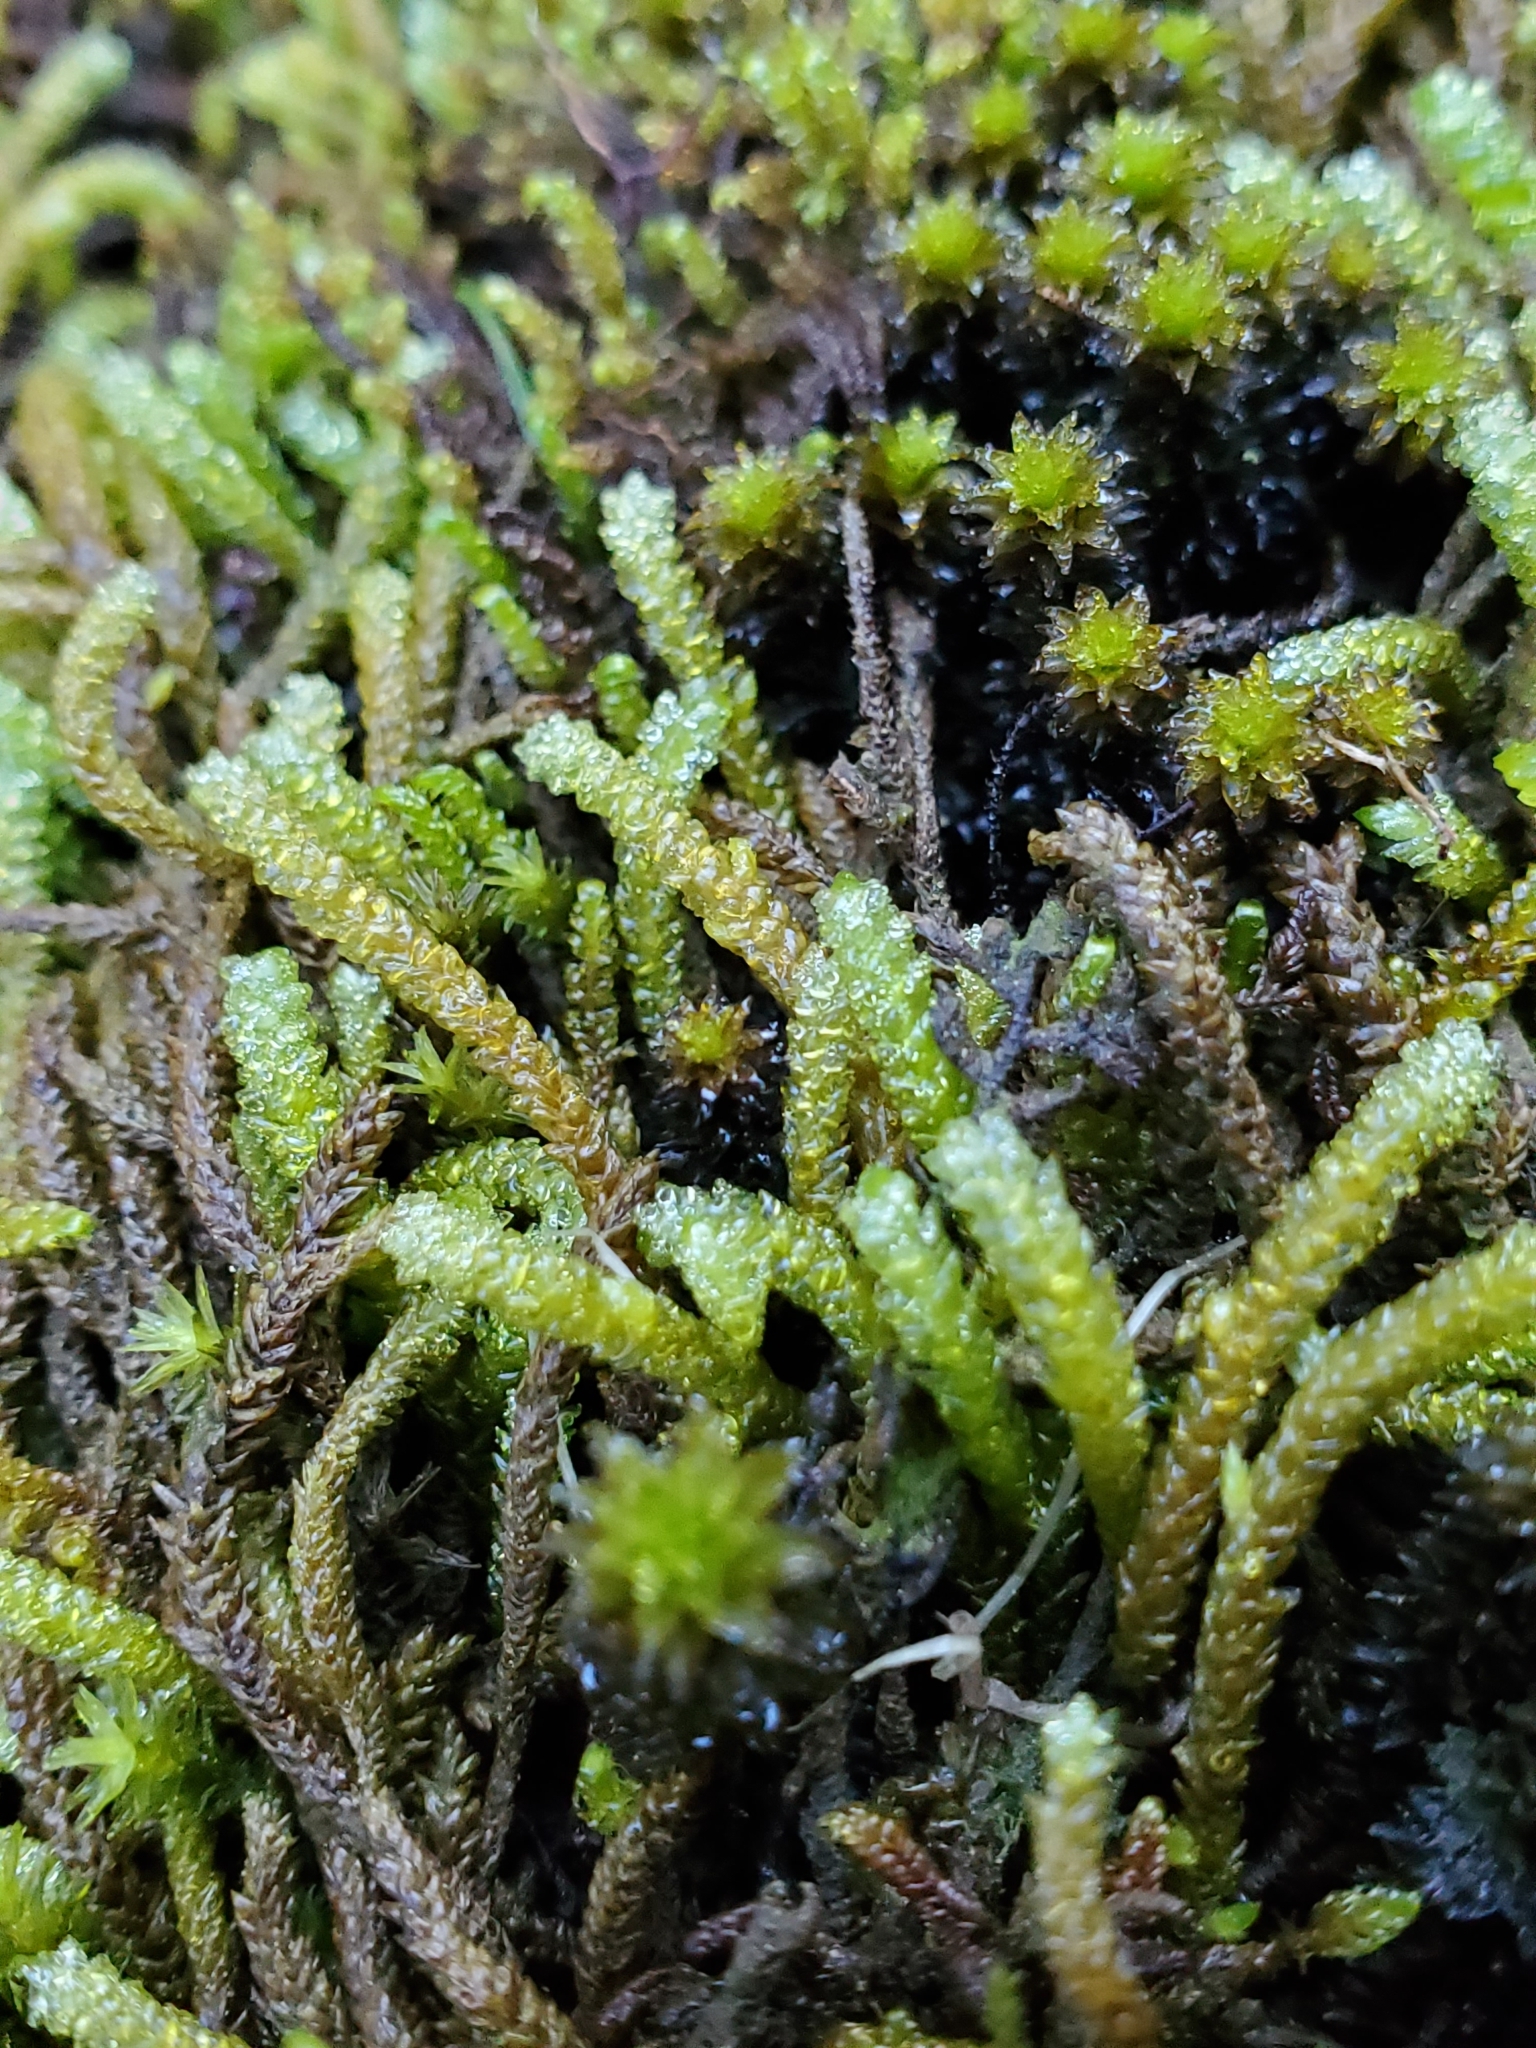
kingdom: Plantae
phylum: Bryophyta
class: Bryopsida
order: Hypnales
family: Brachytheciaceae
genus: Scleropodium
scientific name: Scleropodium obtusifolium
